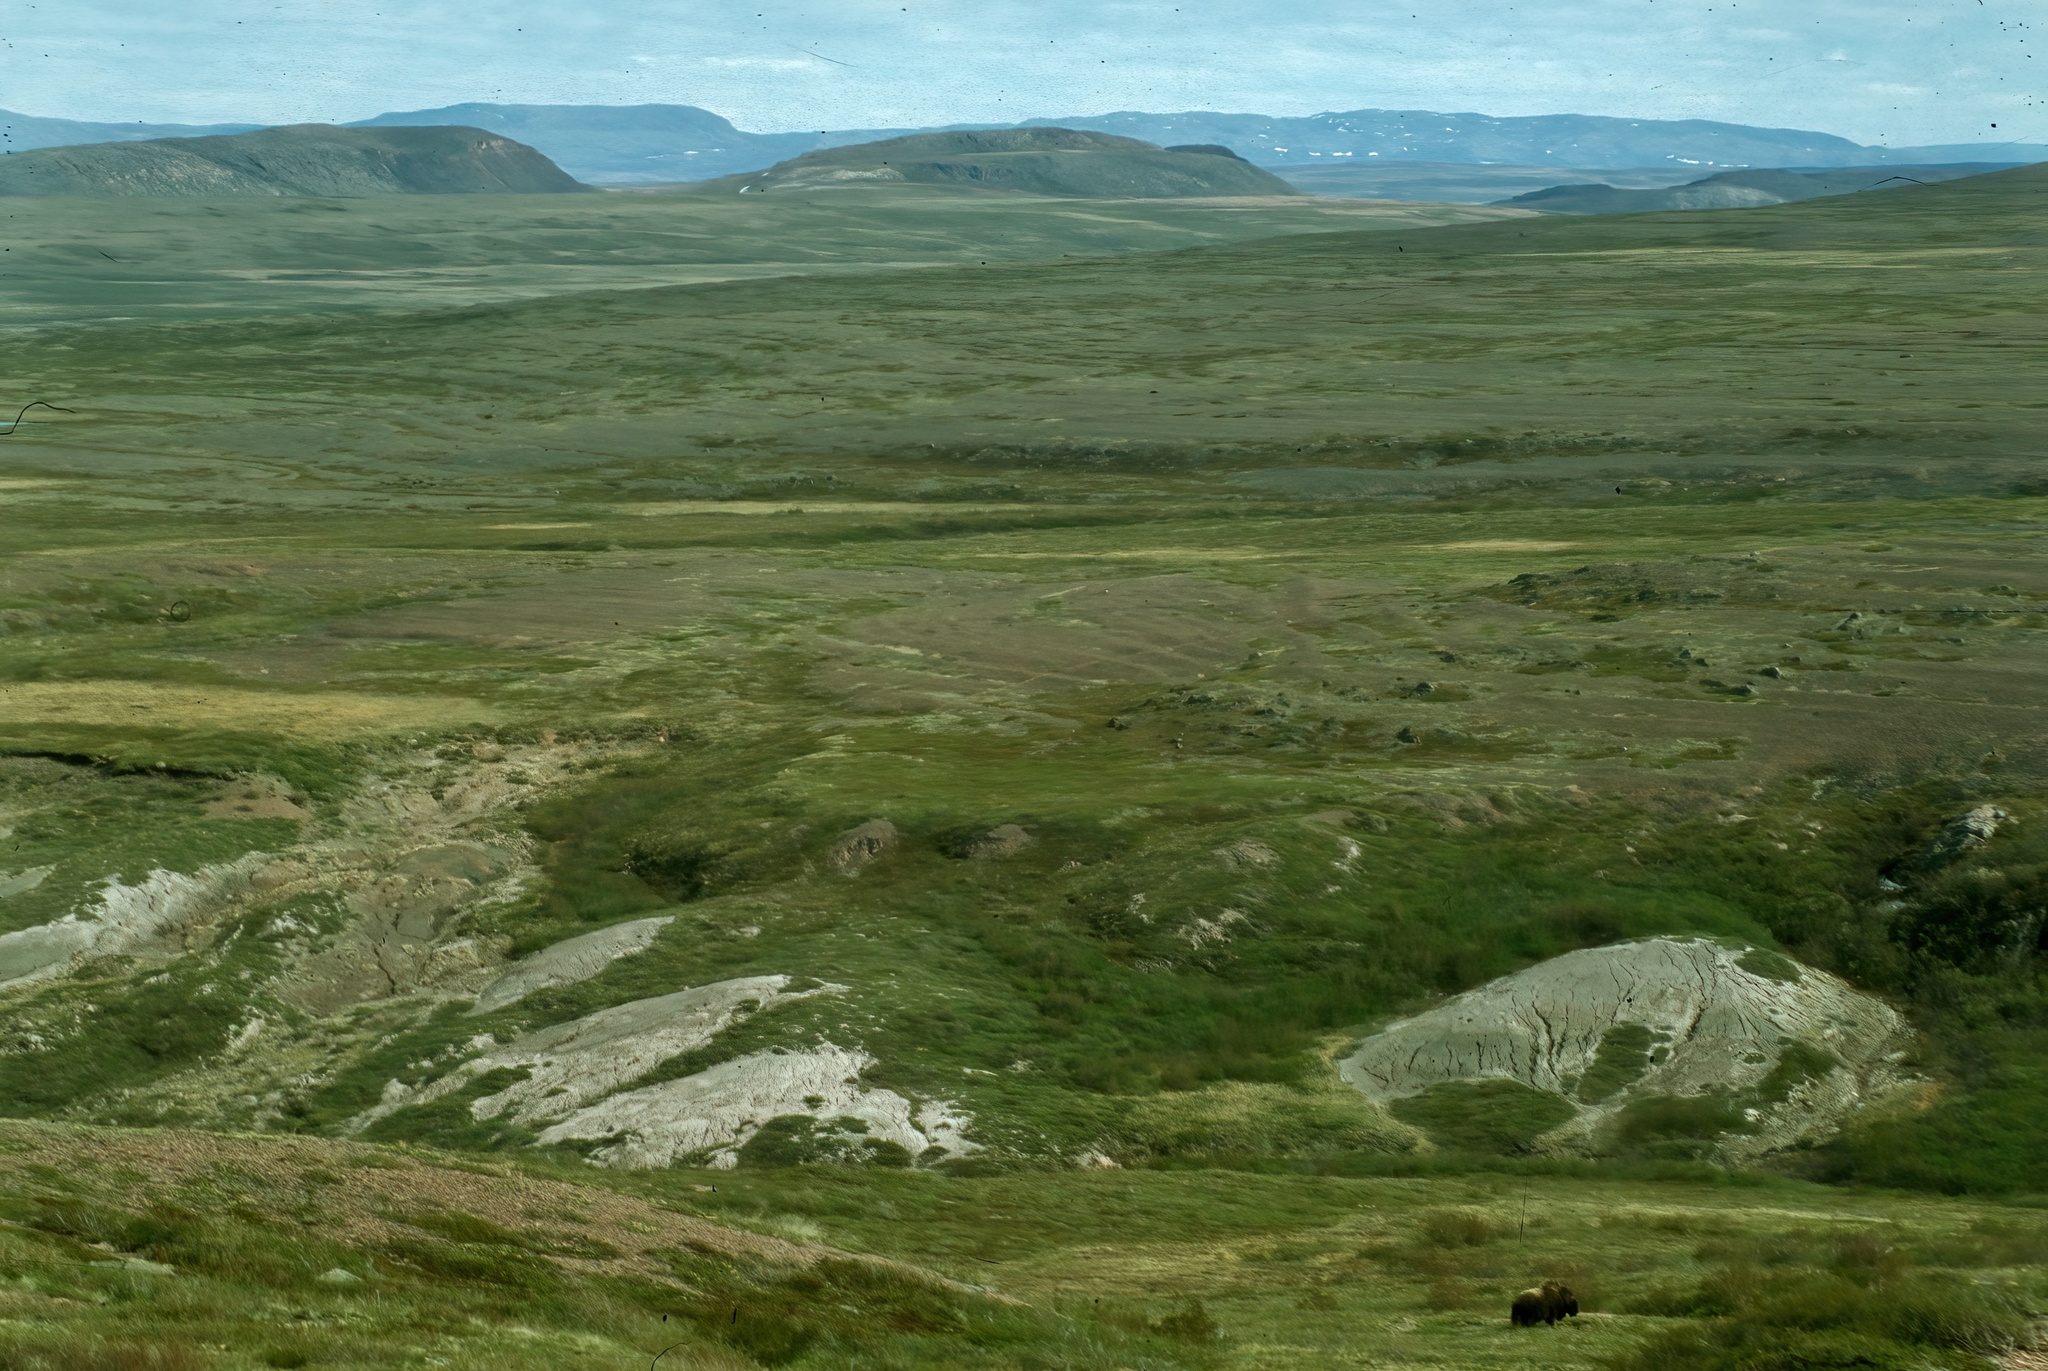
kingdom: Animalia
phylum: Chordata
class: Mammalia
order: Artiodactyla
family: Bovidae
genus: Ovibos
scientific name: Ovibos moschatus
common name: Muskox
